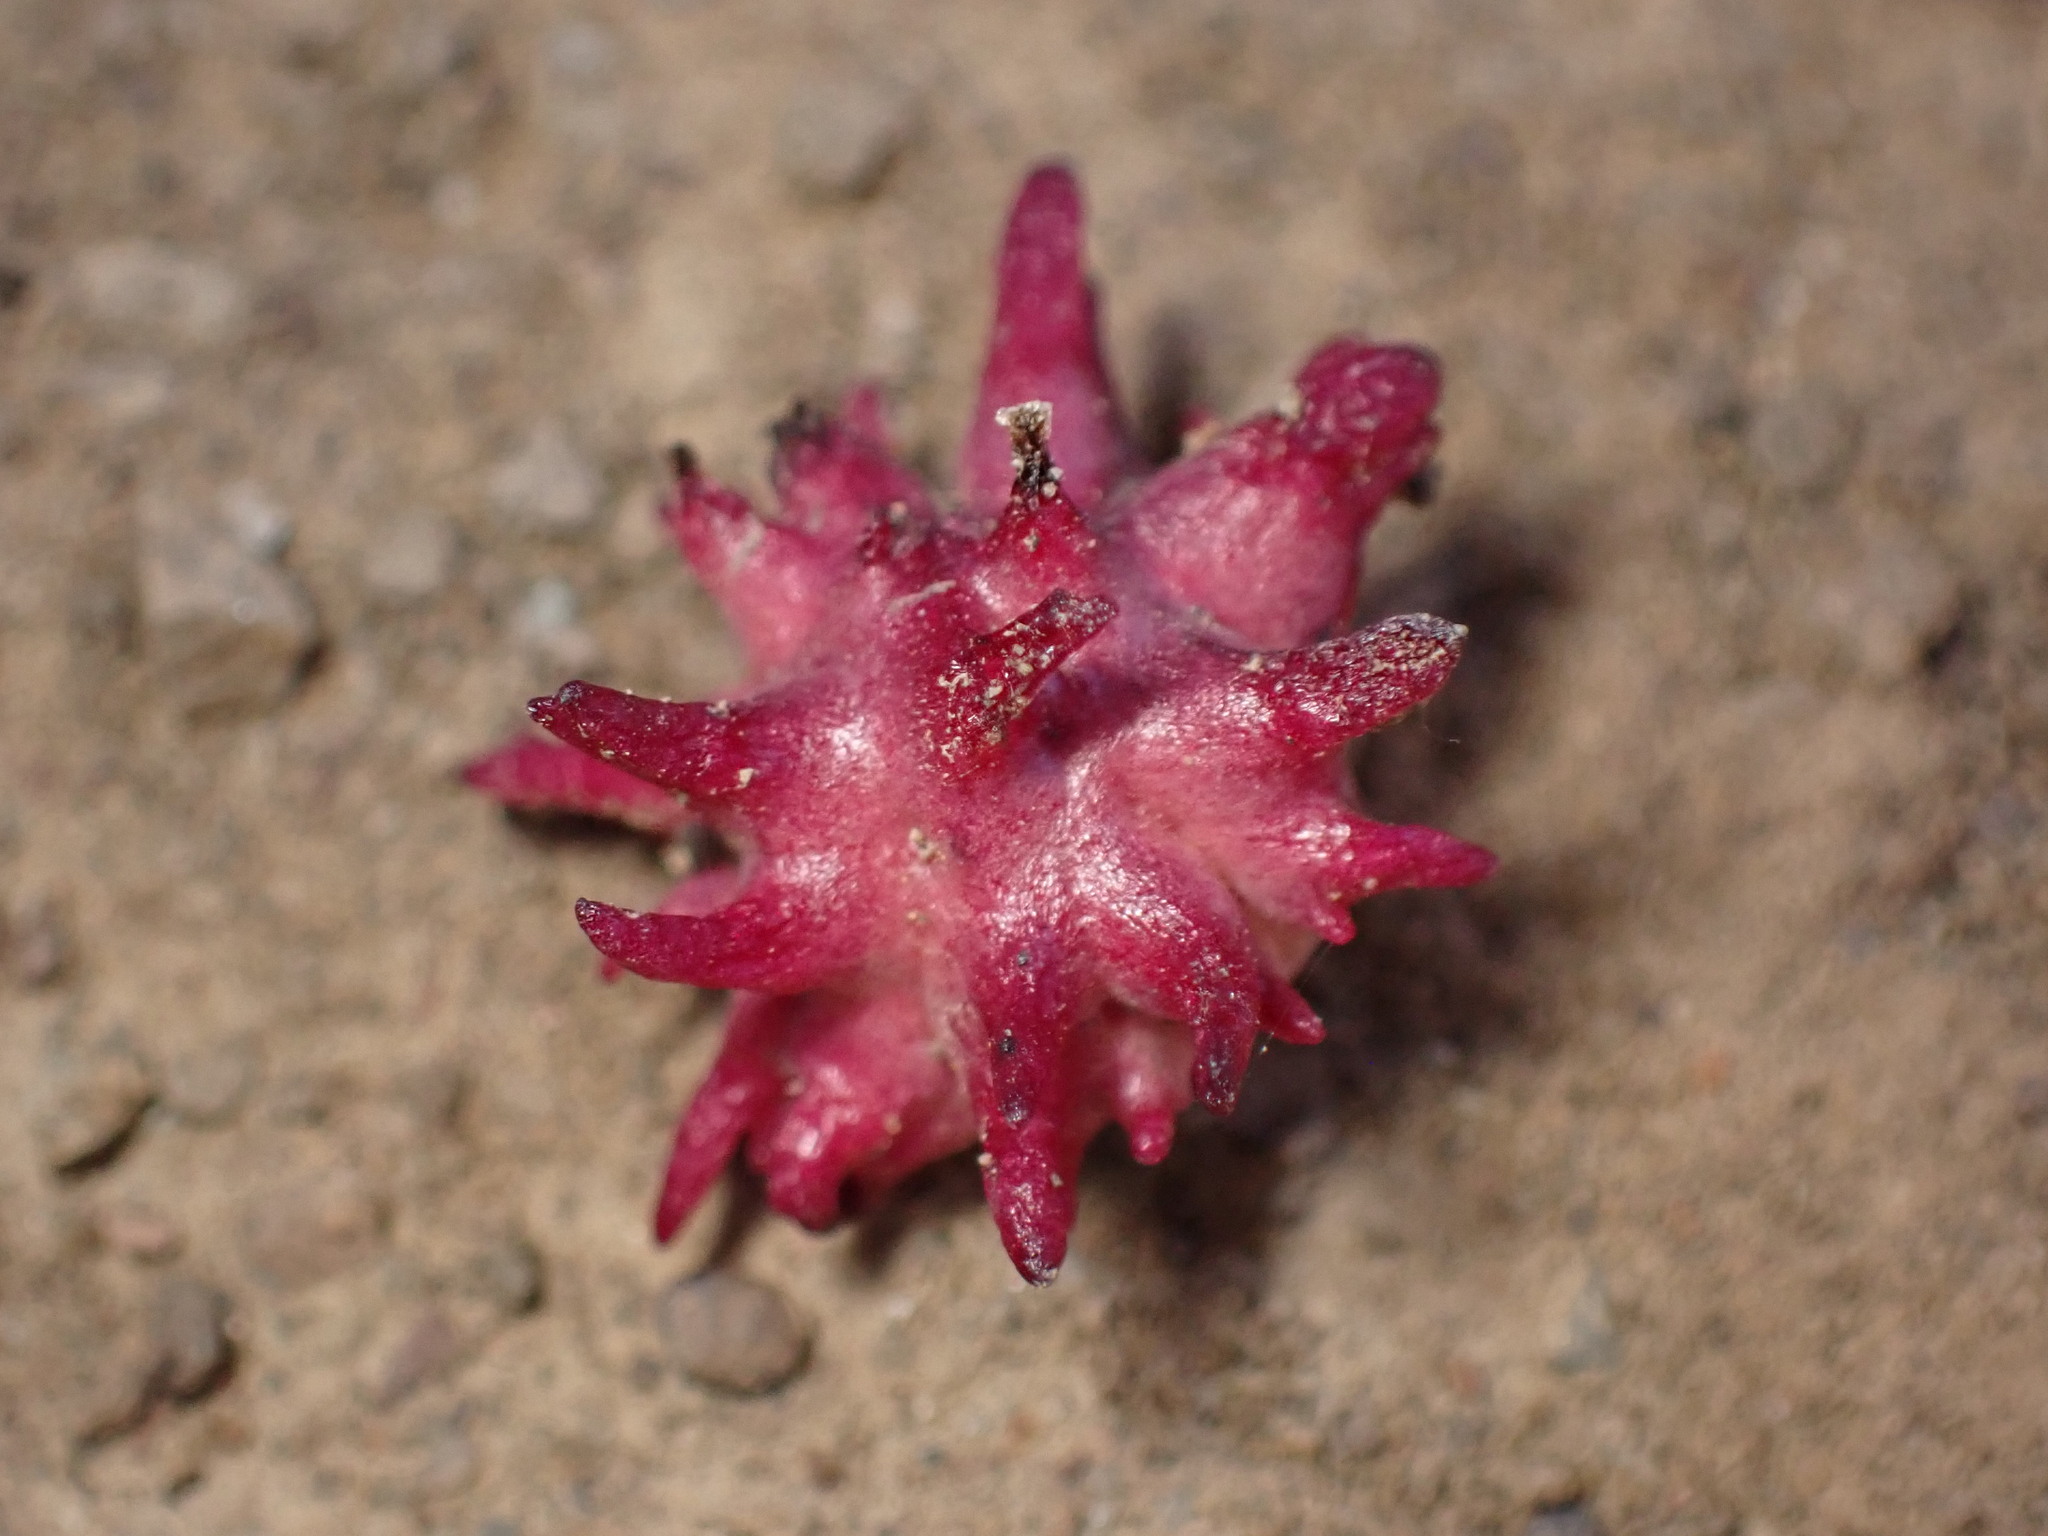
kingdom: Animalia
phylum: Arthropoda
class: Insecta
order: Hymenoptera
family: Cynipidae
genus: Cynips
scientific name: Cynips
